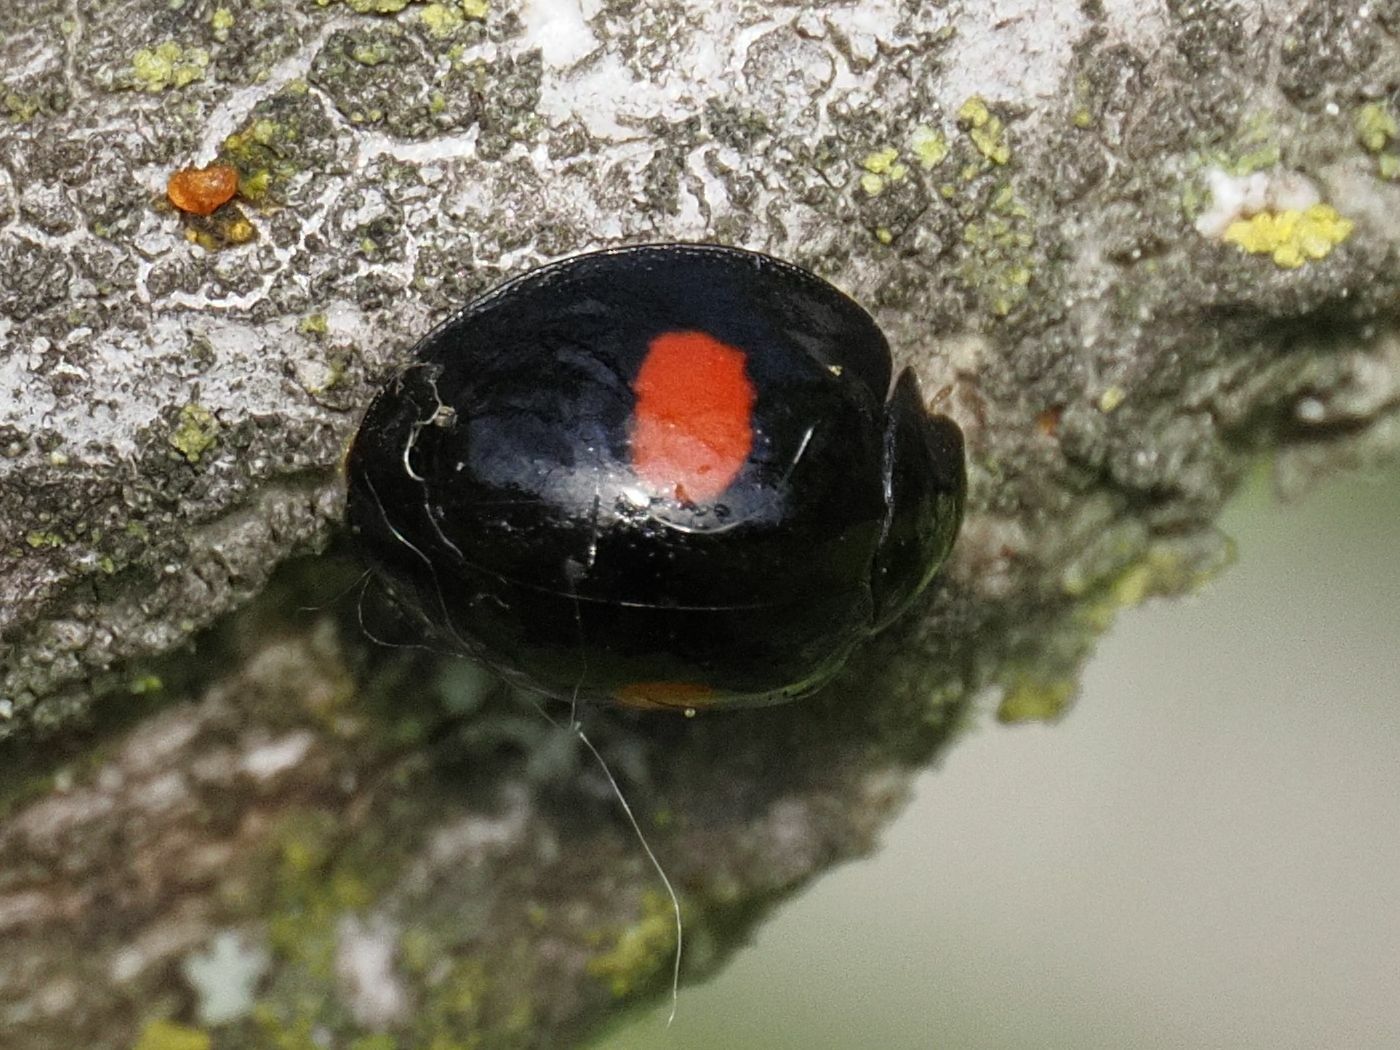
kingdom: Animalia
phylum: Arthropoda
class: Insecta
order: Coleoptera
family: Coccinellidae
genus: Chilocorus
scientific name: Chilocorus renipustulatus
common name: Kidney-spot ladybird
